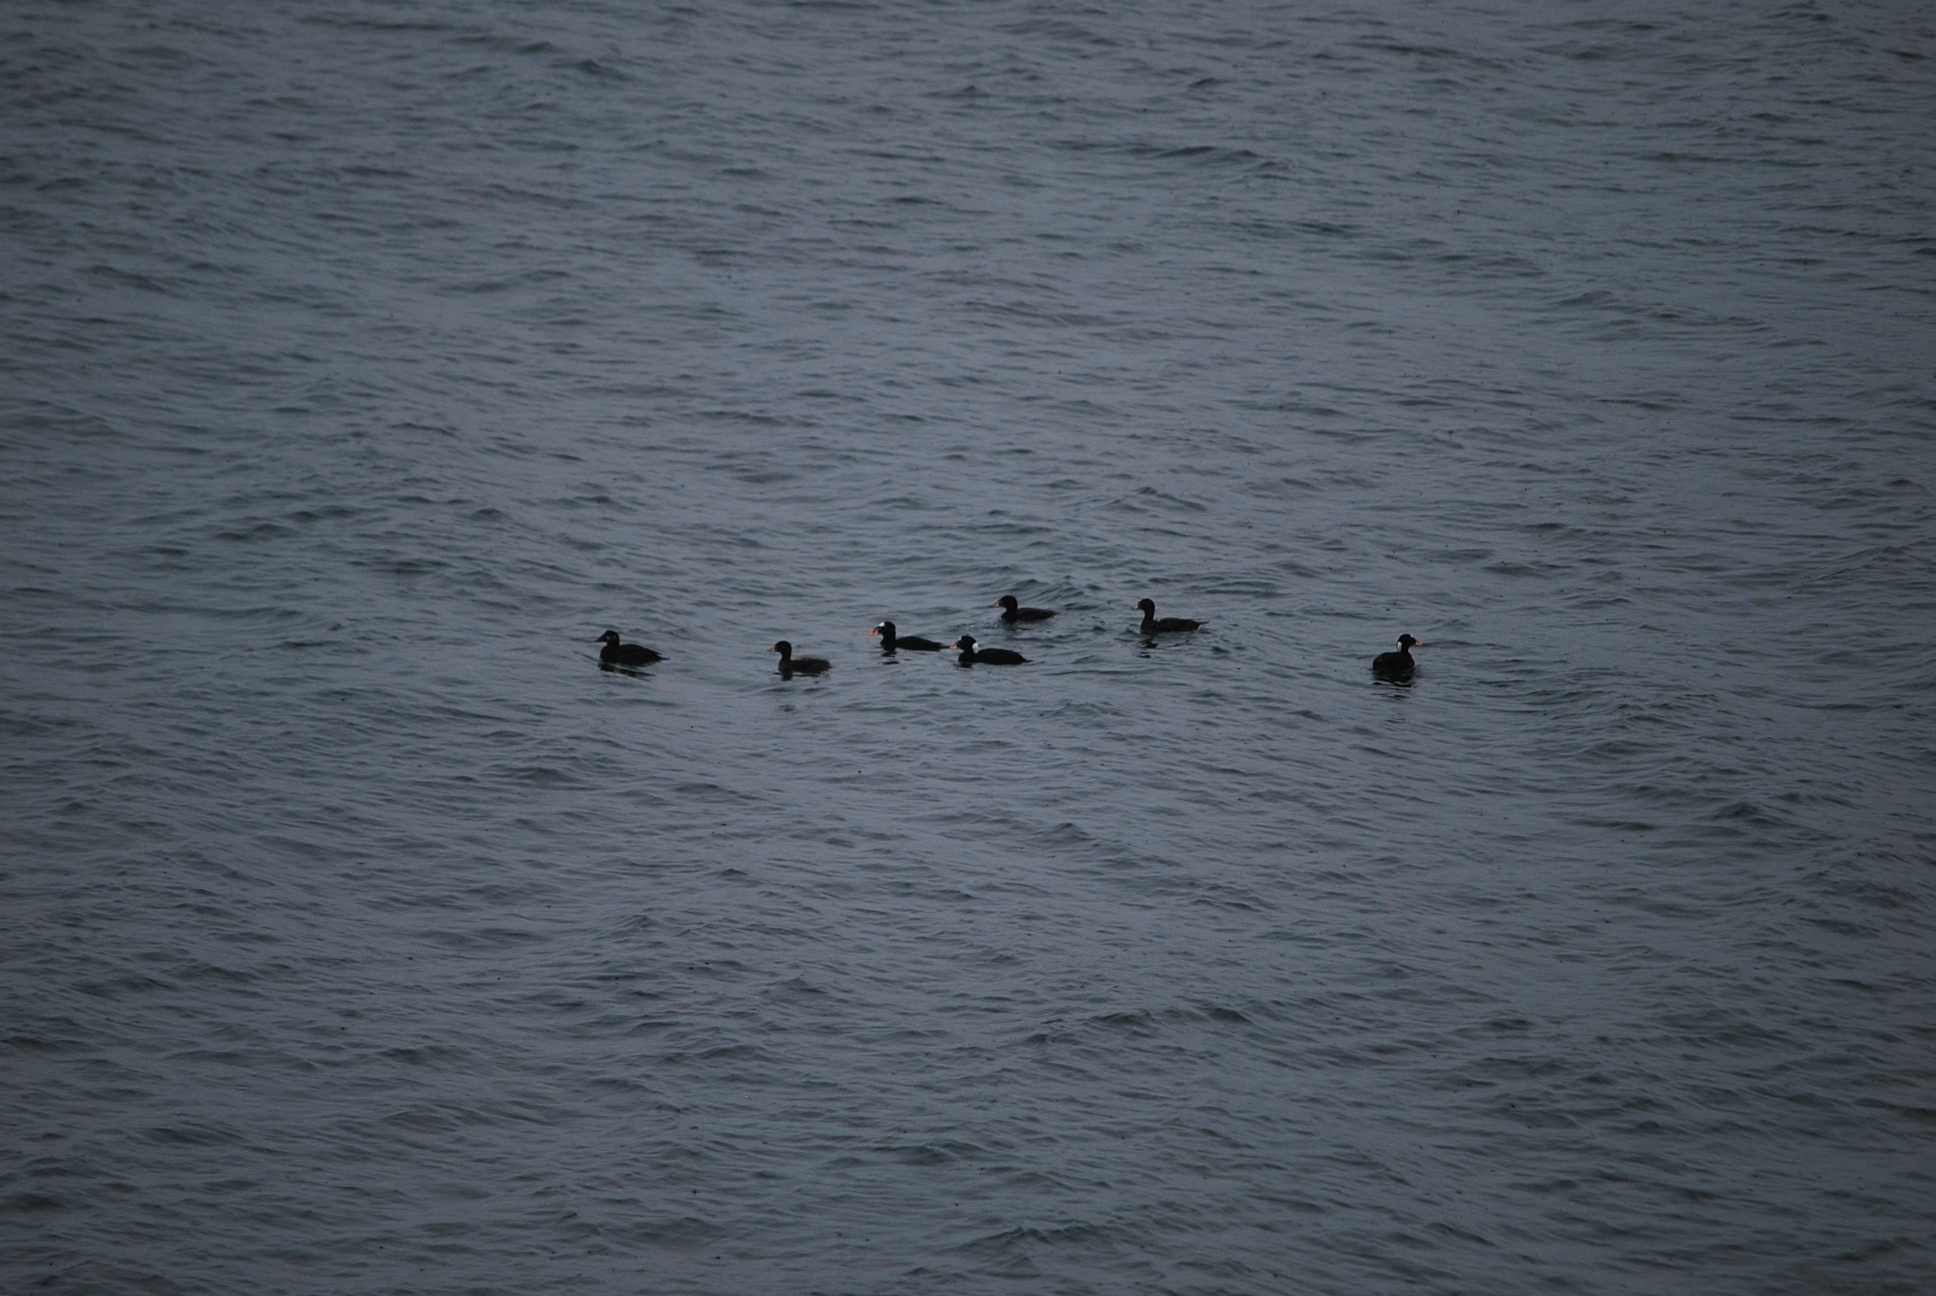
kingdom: Animalia
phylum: Chordata
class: Aves
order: Anseriformes
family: Anatidae
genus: Melanitta
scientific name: Melanitta perspicillata
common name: Surf scoter
